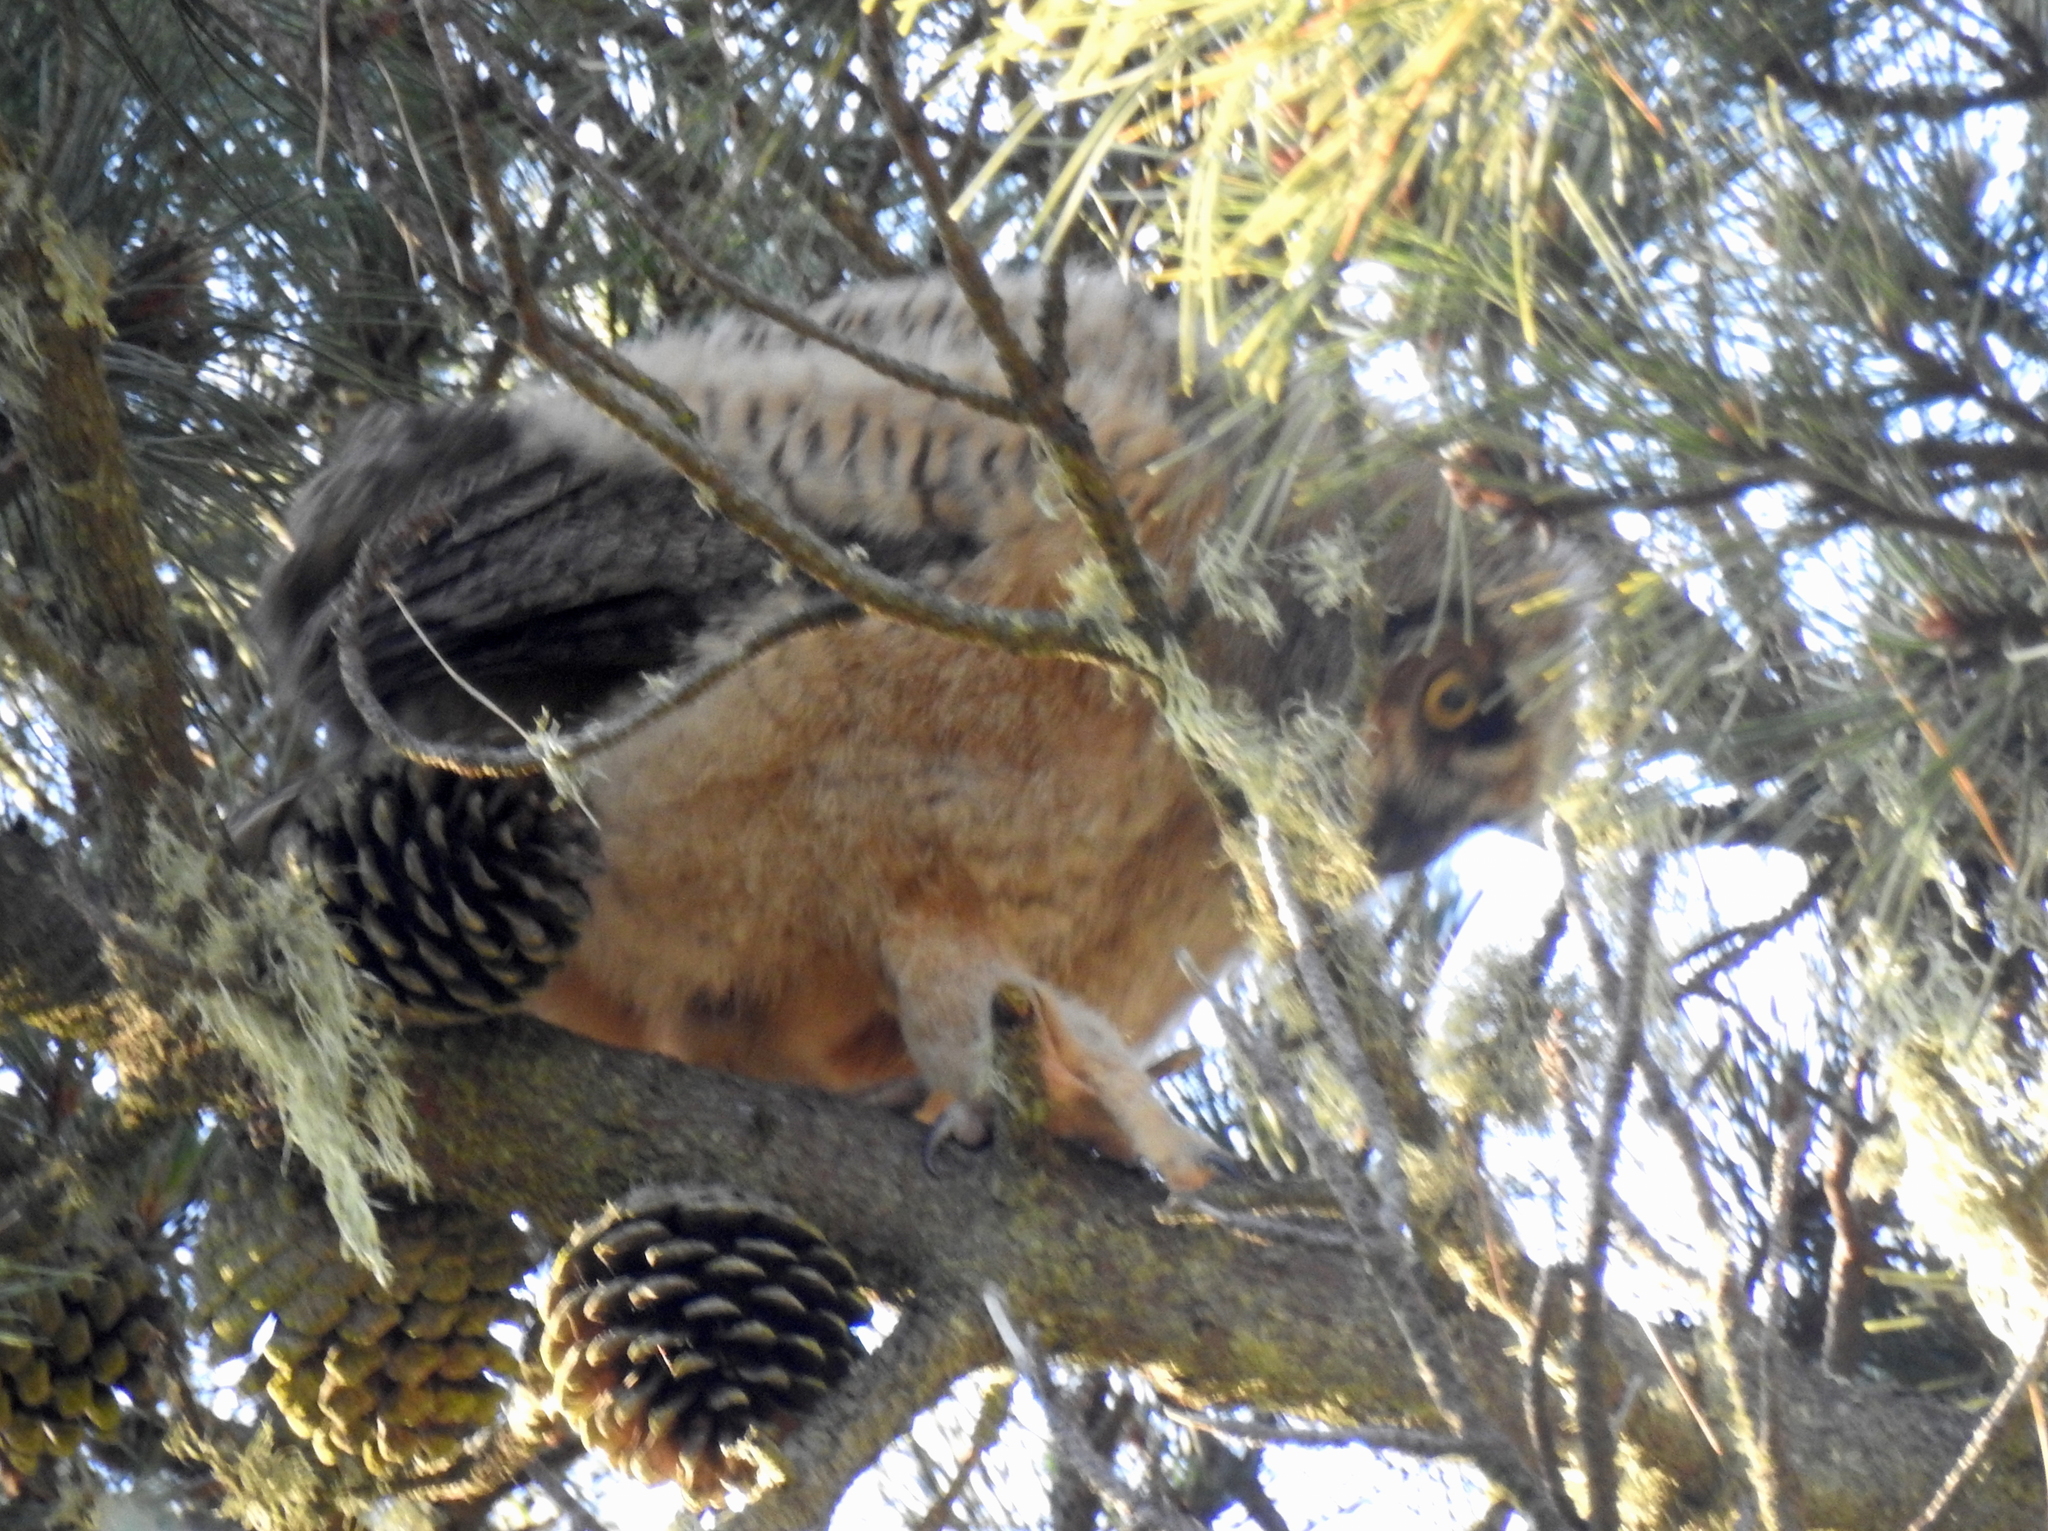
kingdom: Animalia
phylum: Chordata
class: Aves
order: Strigiformes
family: Strigidae
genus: Bubo
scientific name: Bubo virginianus
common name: Great horned owl
